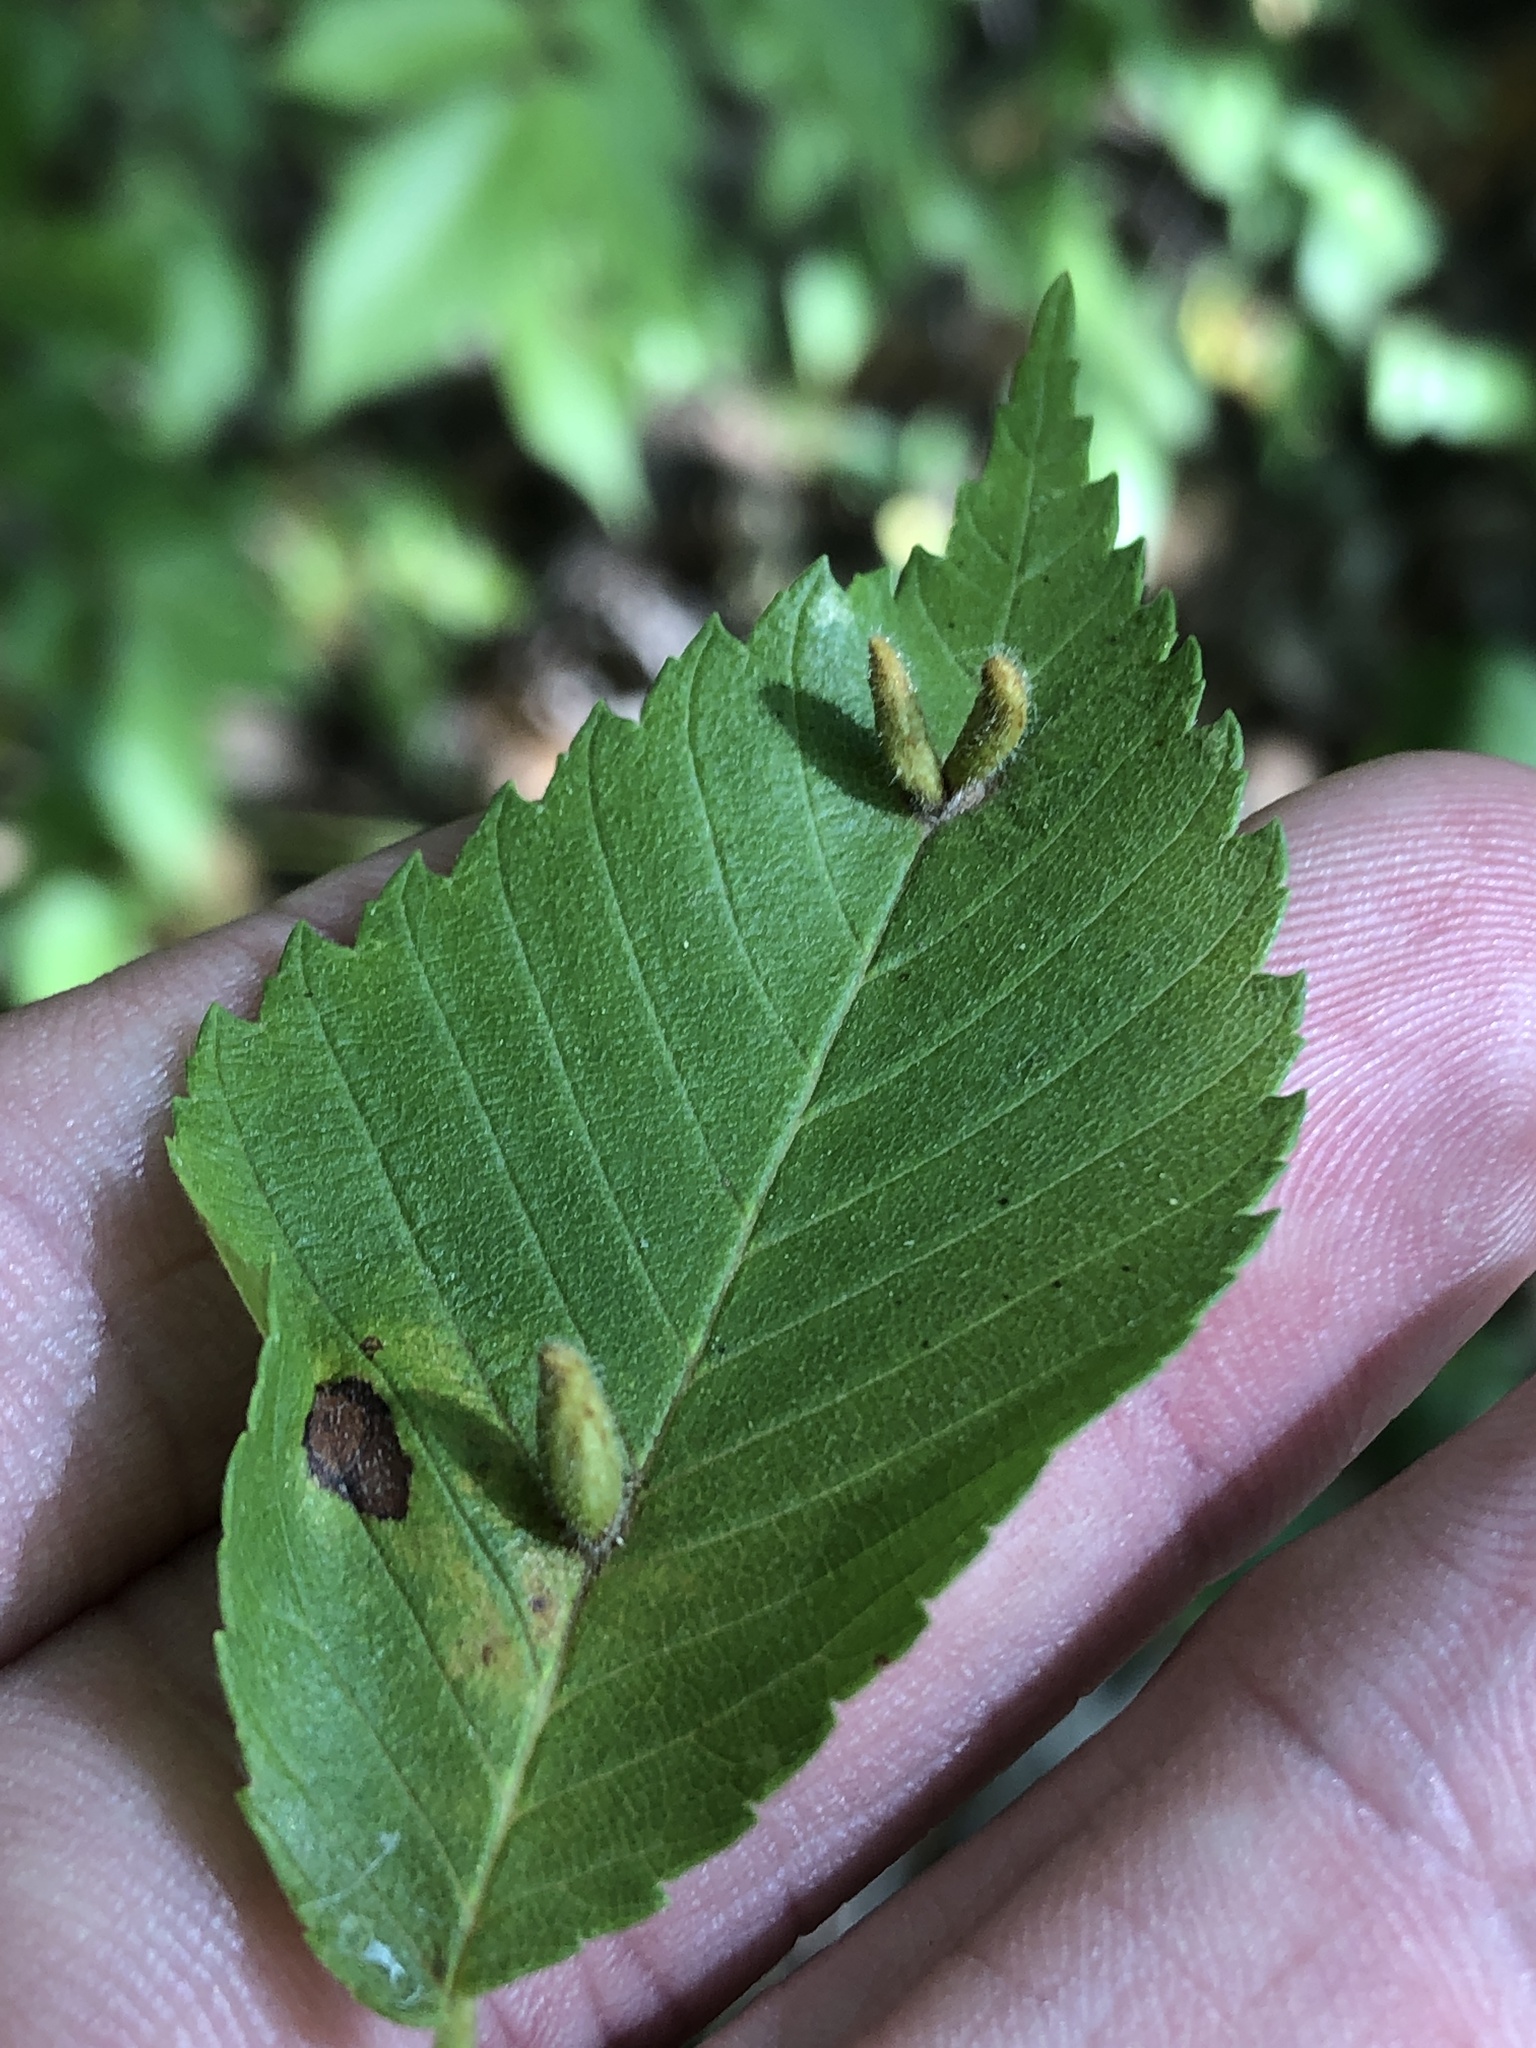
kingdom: Animalia
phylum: Arthropoda
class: Arachnida
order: Trombidiformes
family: Eriophyidae
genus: Aceria
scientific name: Aceria
